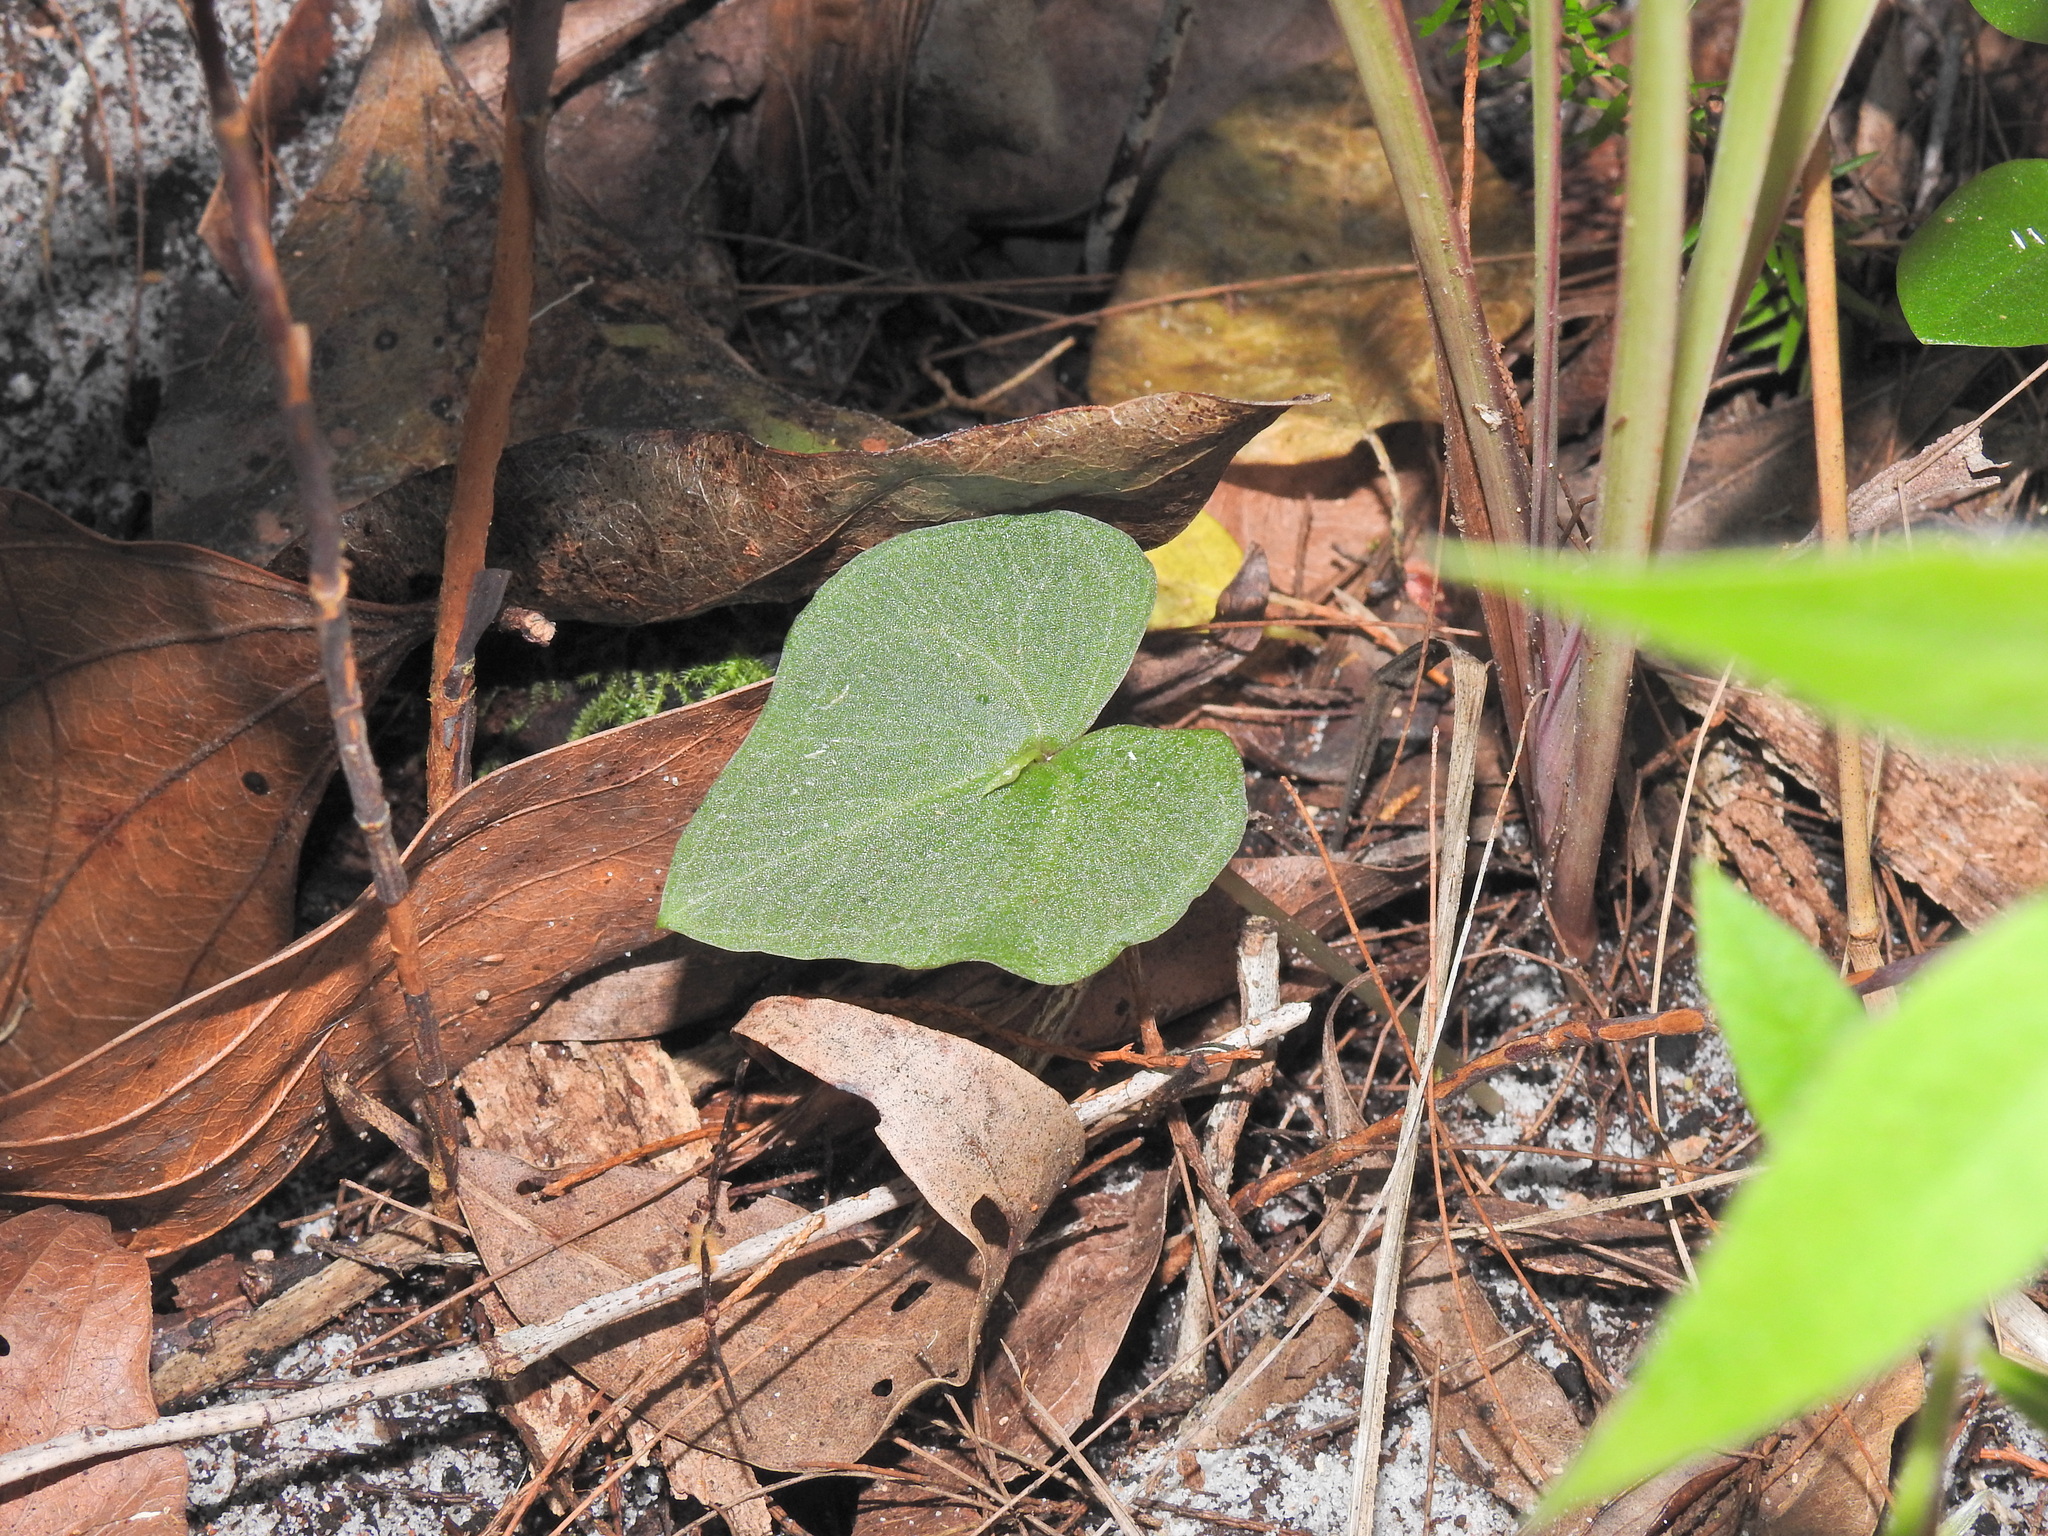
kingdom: Plantae
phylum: Tracheophyta
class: Liliopsida
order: Asparagales
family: Orchidaceae
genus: Acianthus
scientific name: Acianthus fornicatus
